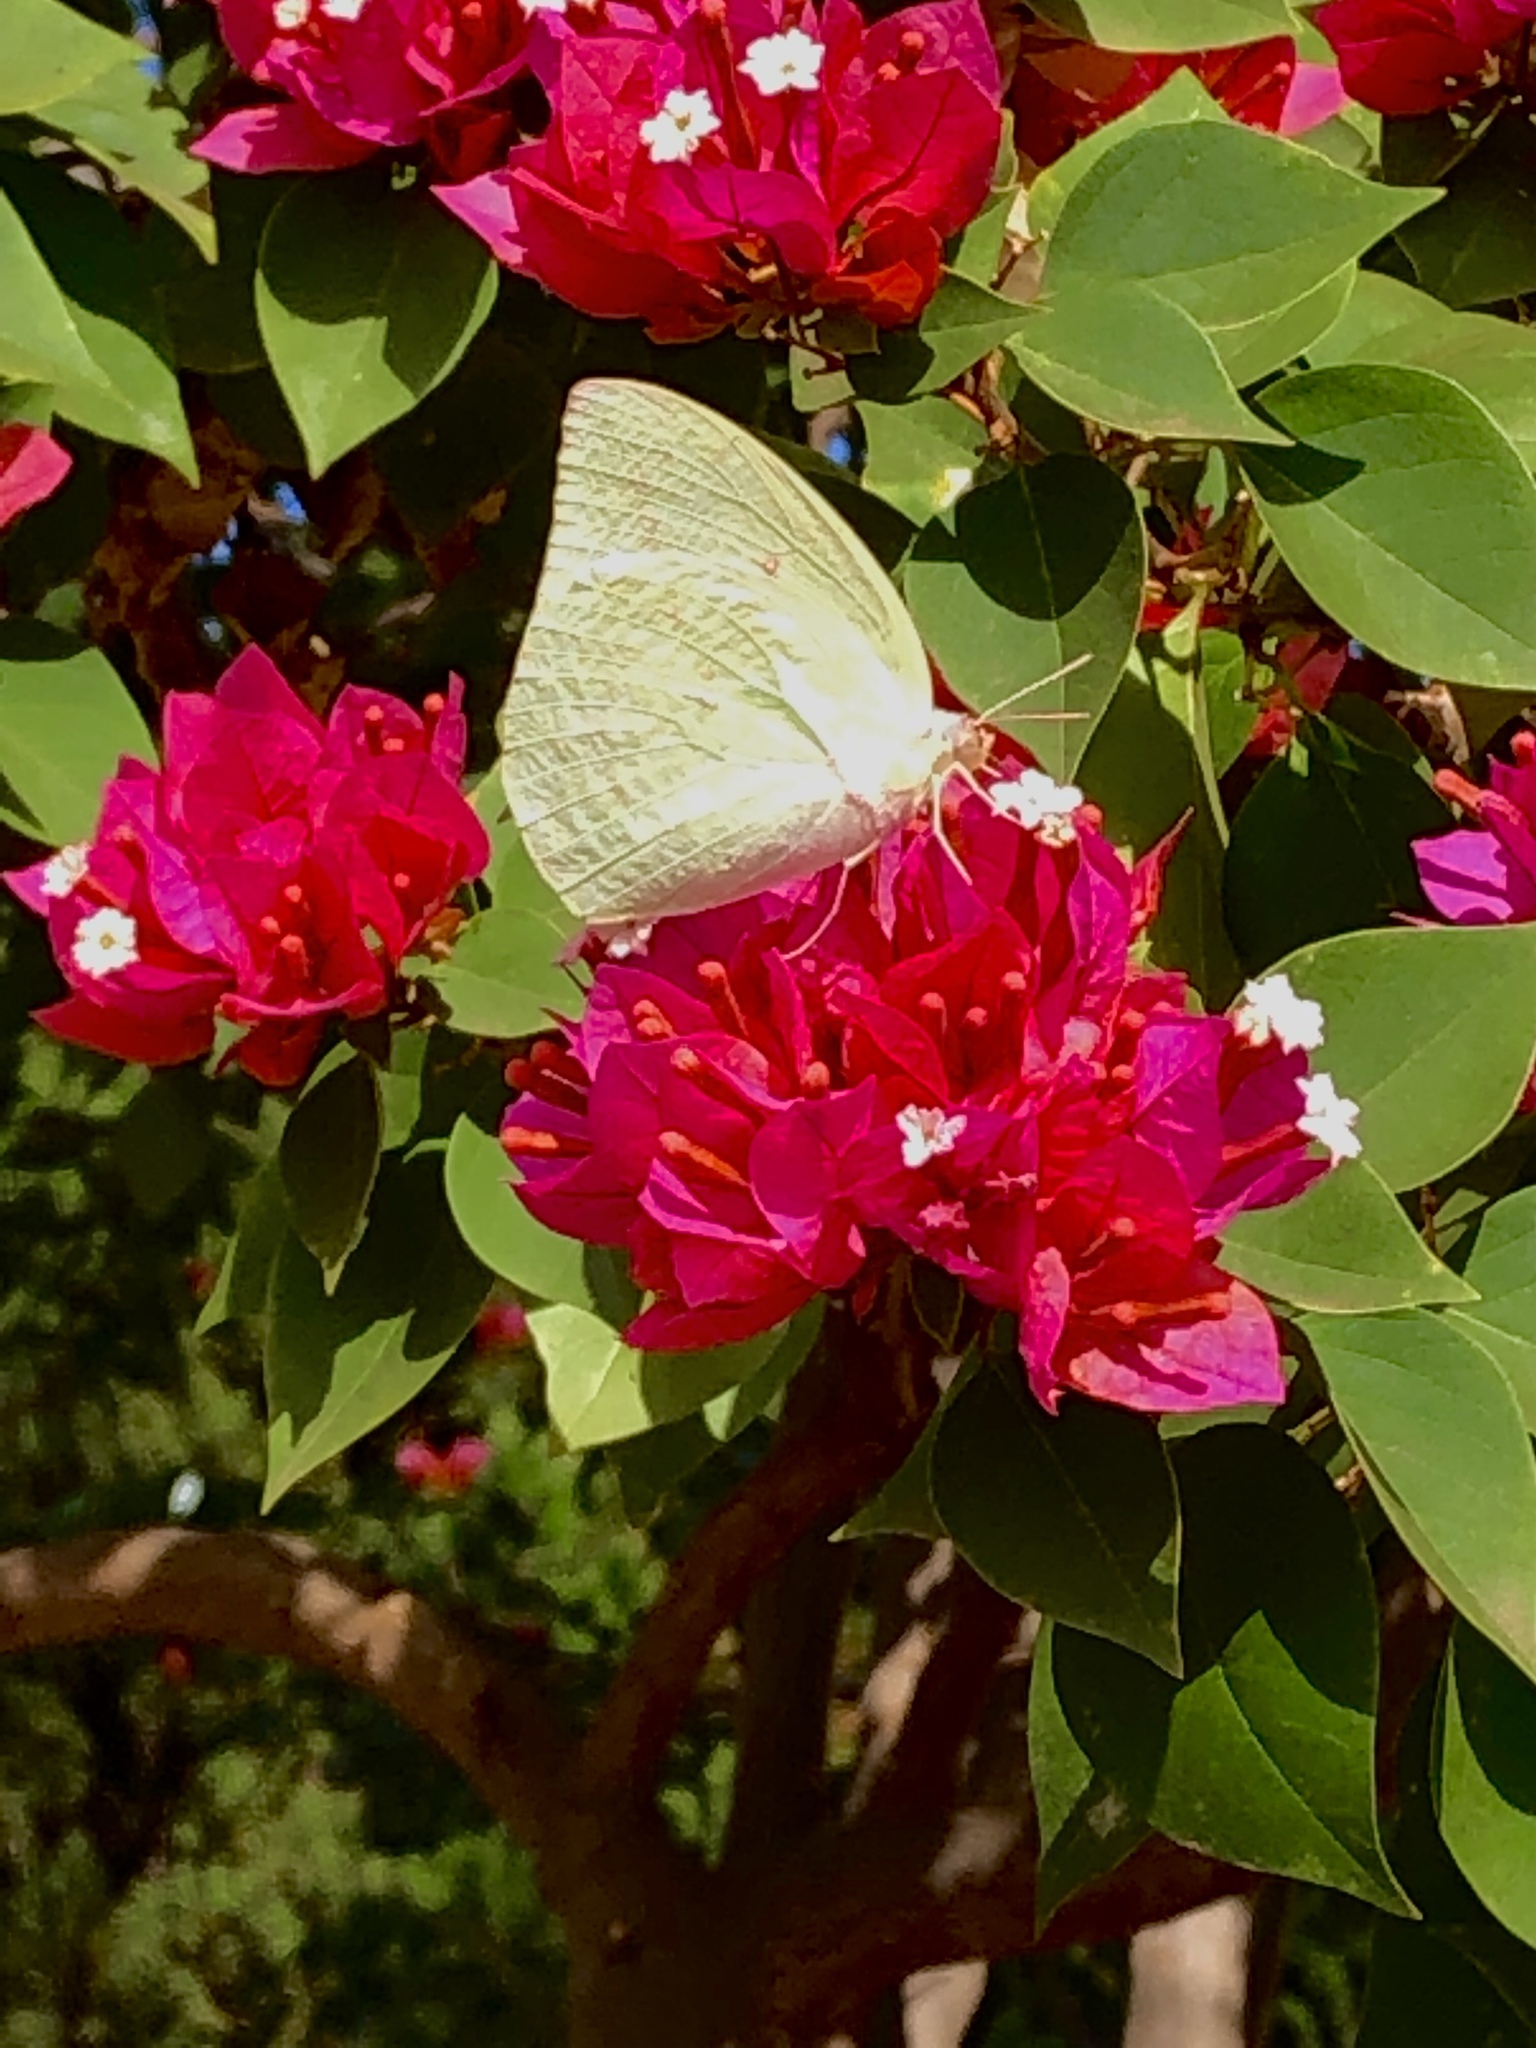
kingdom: Animalia
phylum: Arthropoda
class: Insecta
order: Lepidoptera
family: Pieridae
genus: Catopsilia
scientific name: Catopsilia pomona
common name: Common emigrant
